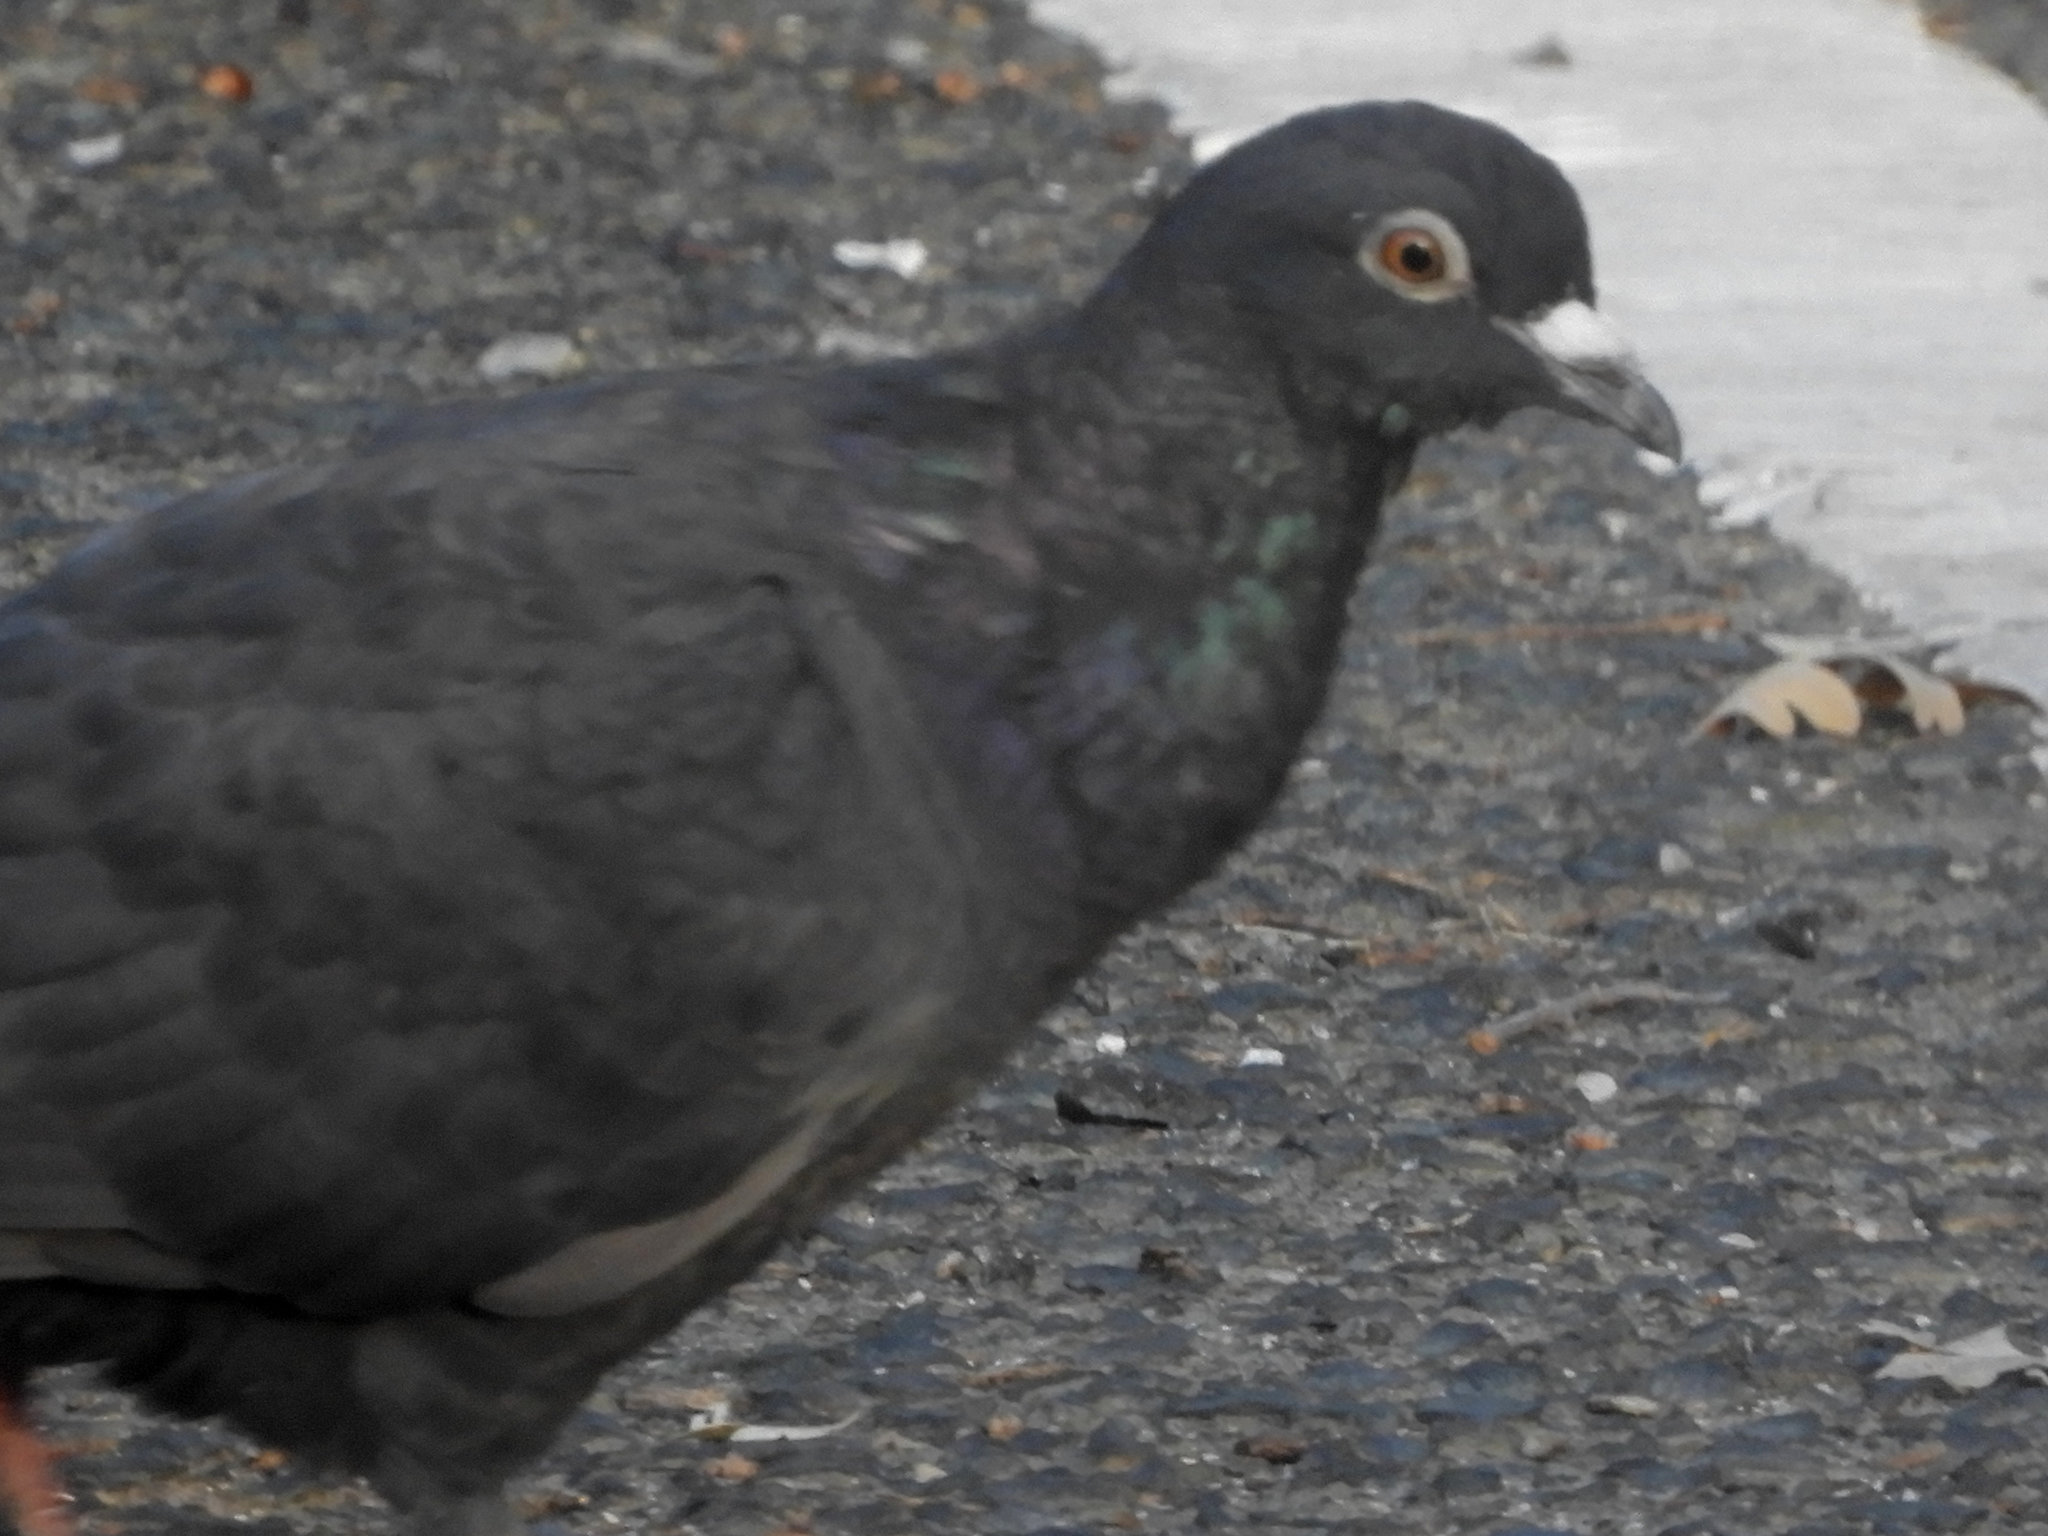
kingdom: Animalia
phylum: Chordata
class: Aves
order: Columbiformes
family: Columbidae
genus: Columba
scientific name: Columba livia
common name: Rock pigeon
